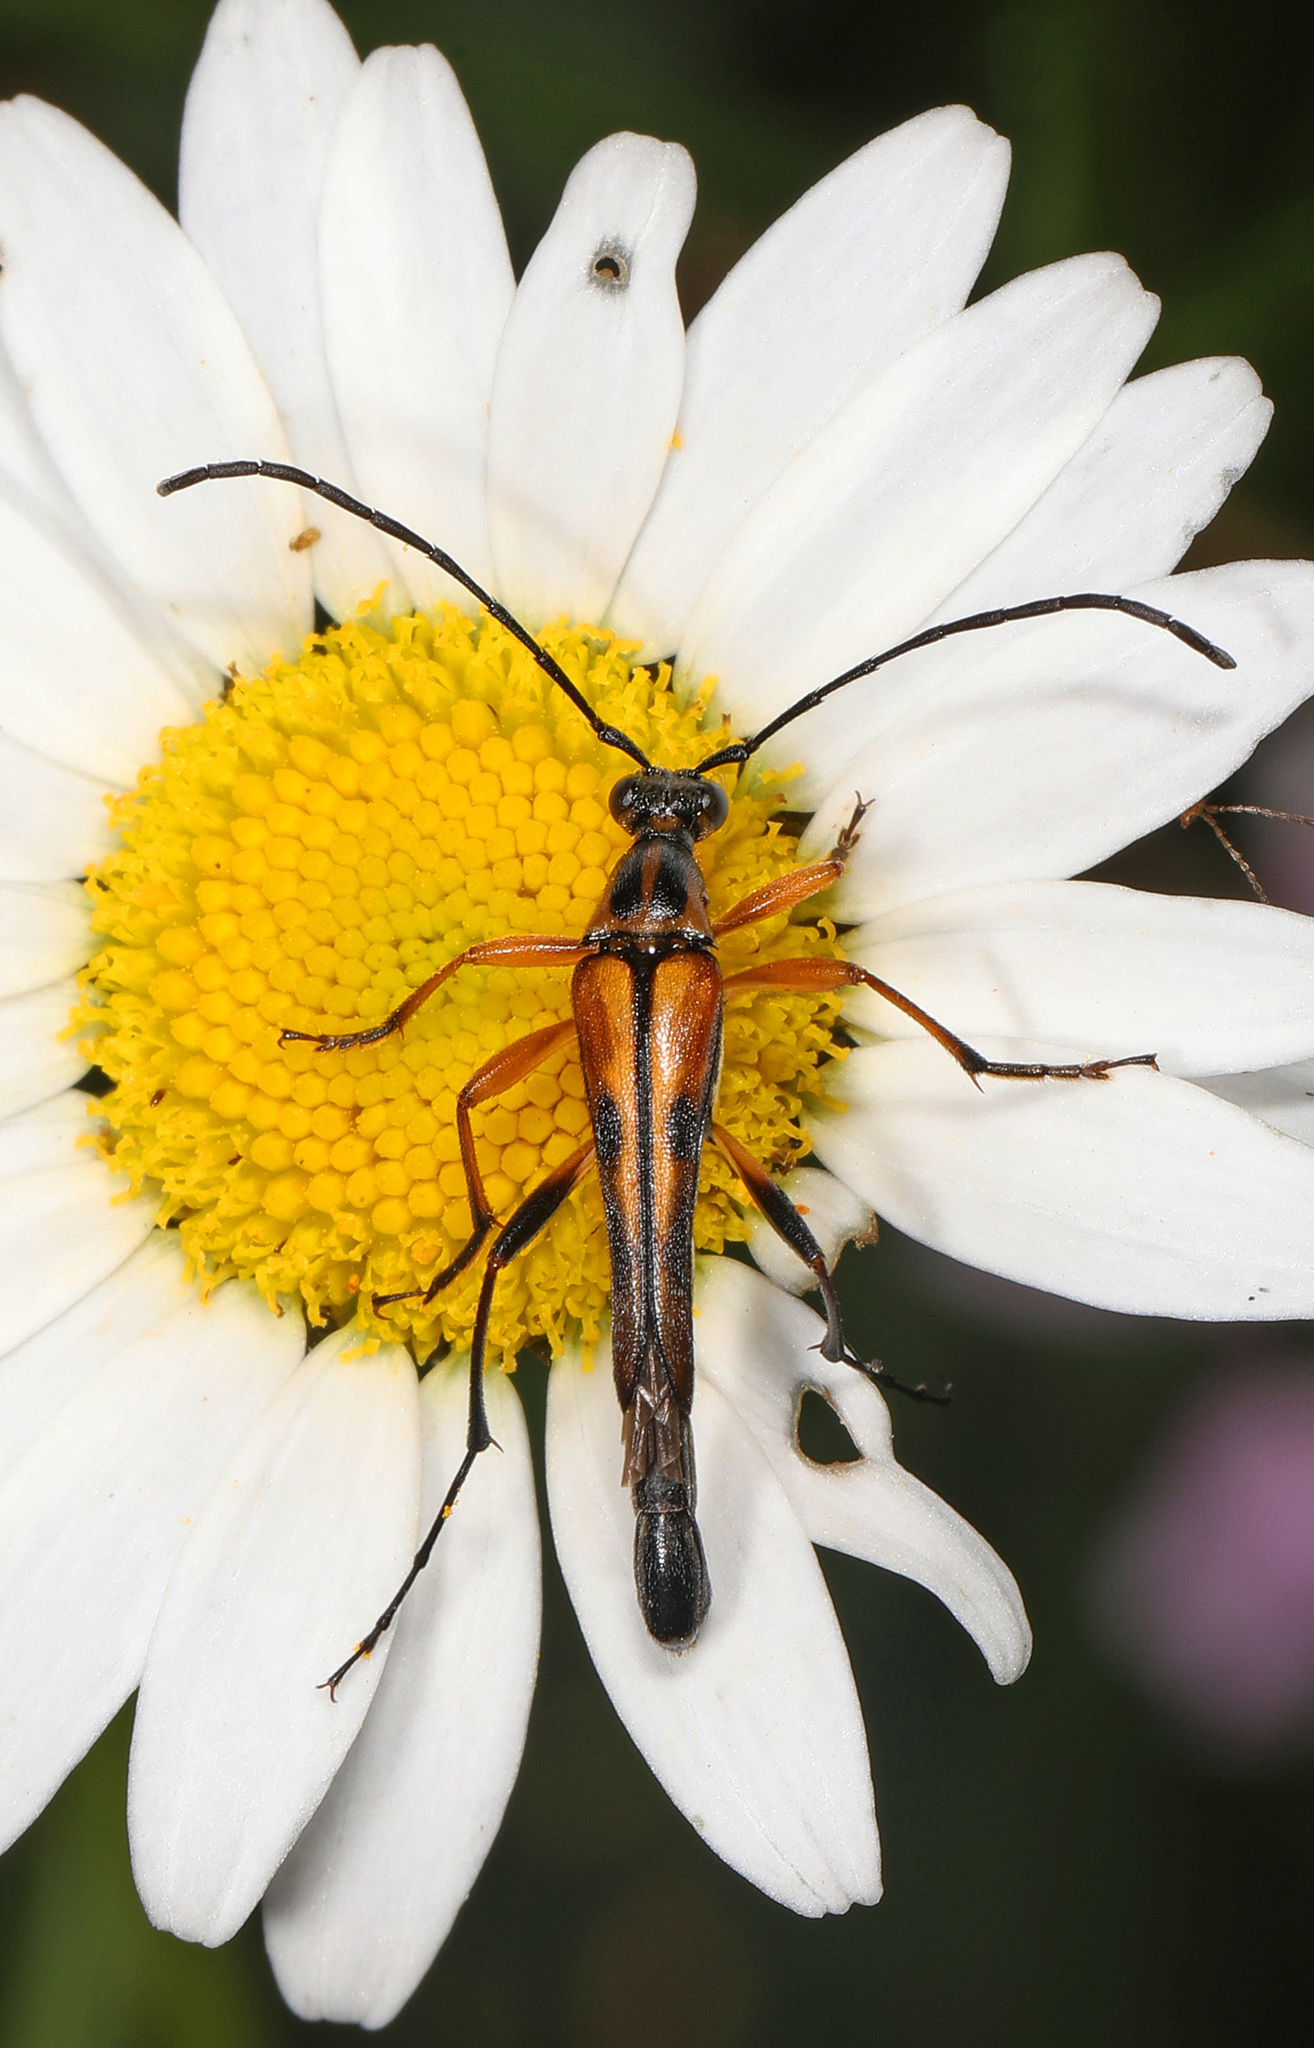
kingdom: Animalia
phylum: Arthropoda
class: Insecta
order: Coleoptera
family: Cerambycidae
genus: Strangalia
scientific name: Strangalia famelica
